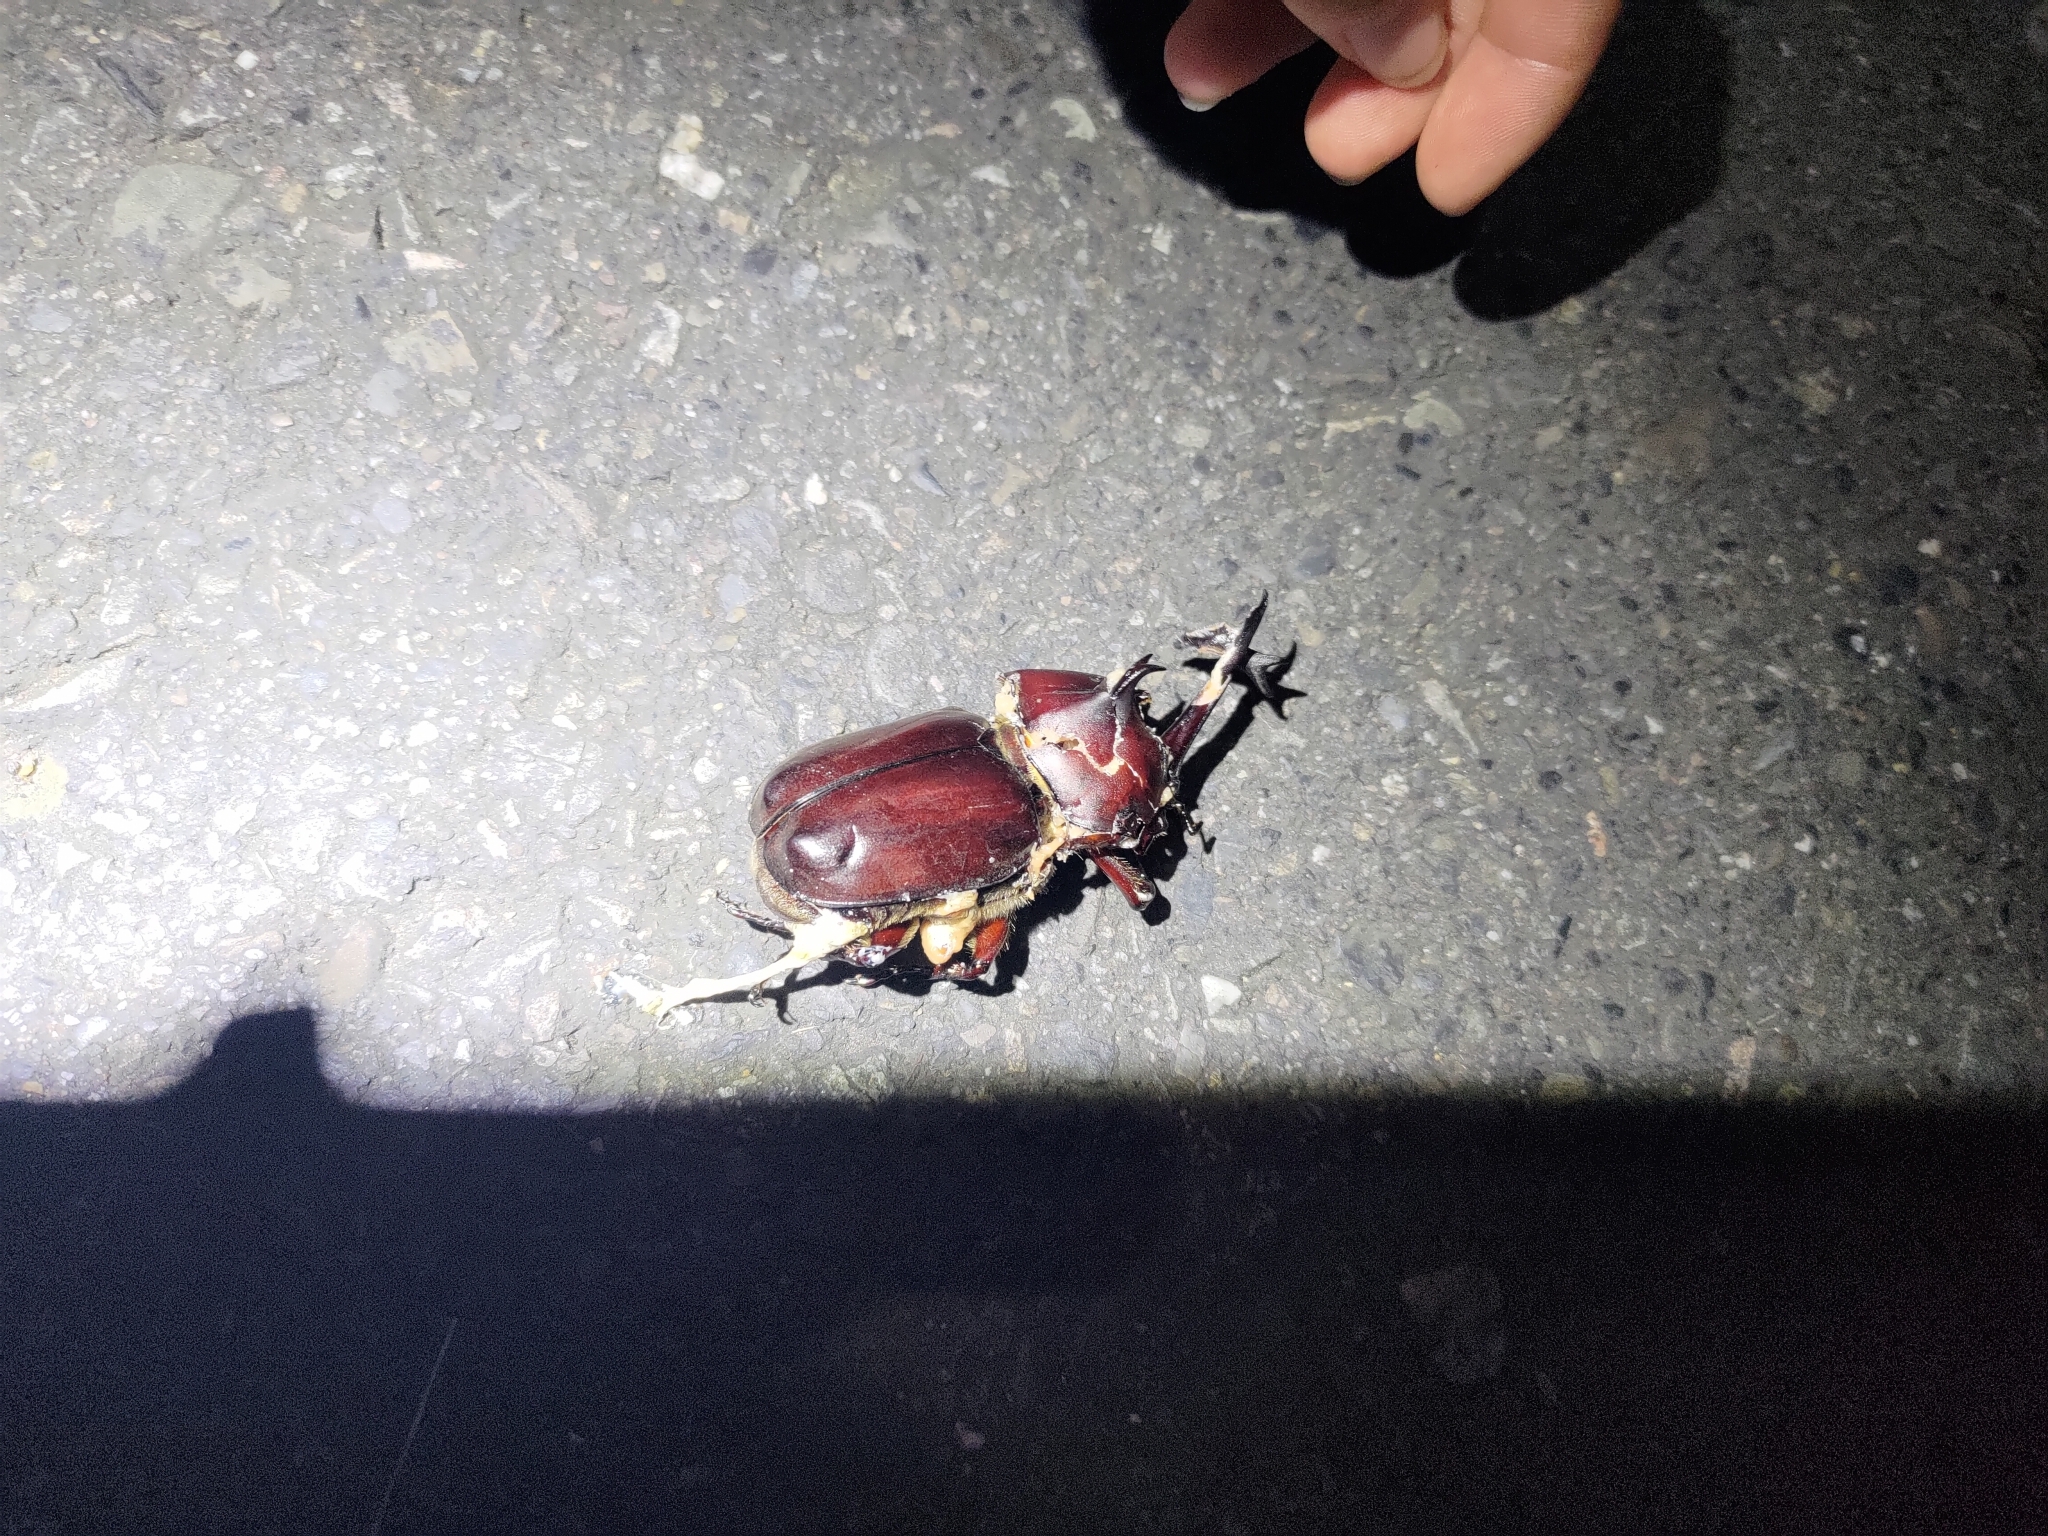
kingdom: Animalia
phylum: Arthropoda
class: Insecta
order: Coleoptera
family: Scarabaeidae
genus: Trypoxylus
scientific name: Trypoxylus dichotomus
